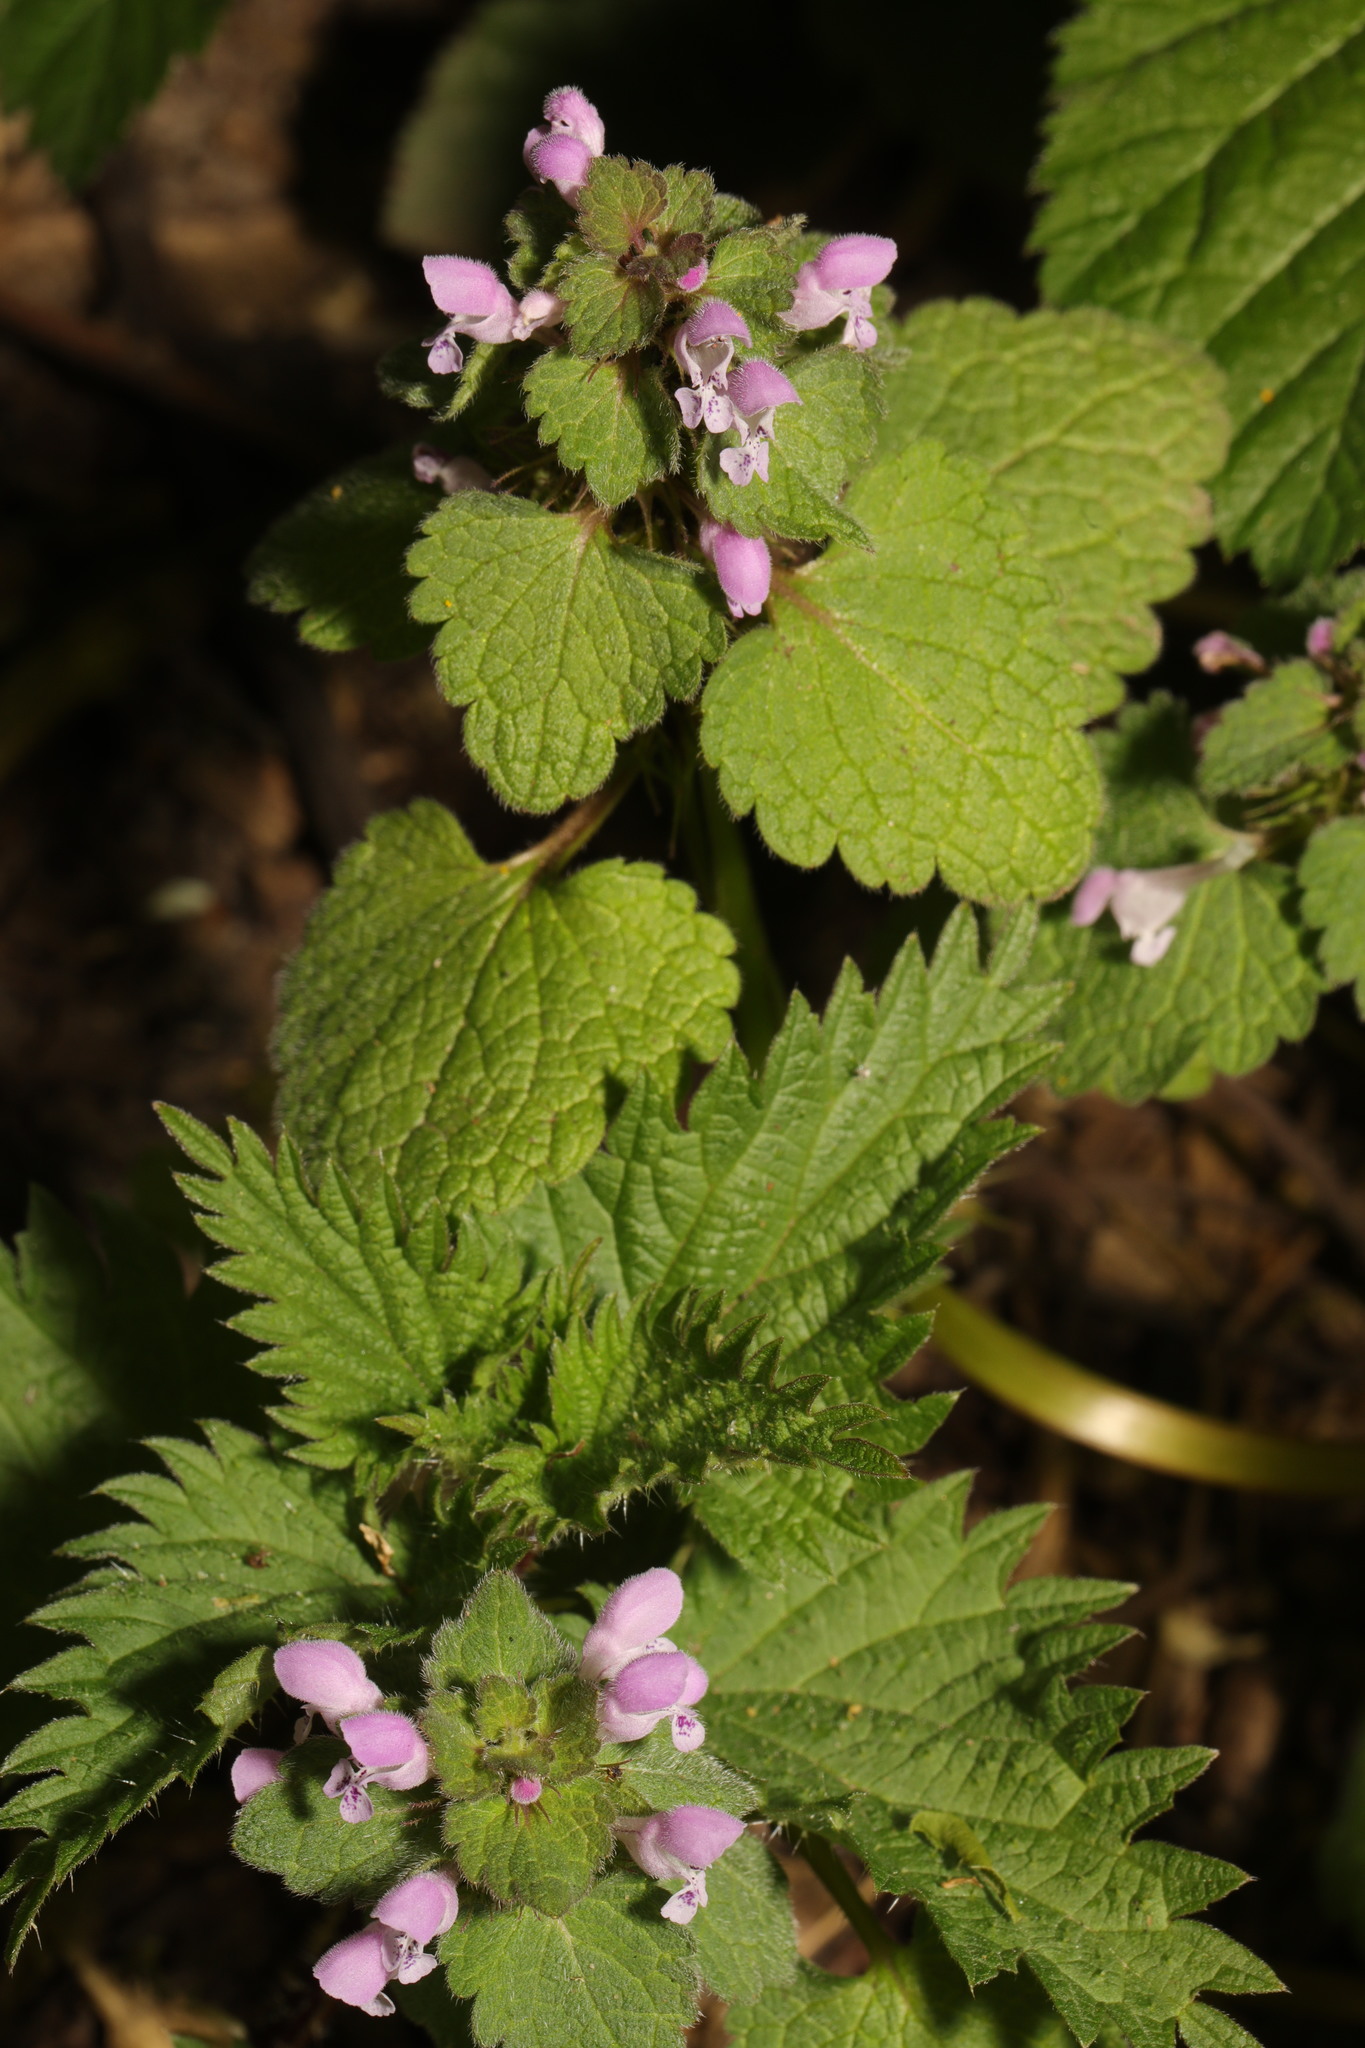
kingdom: Plantae
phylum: Tracheophyta
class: Magnoliopsida
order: Lamiales
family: Lamiaceae
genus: Lamium
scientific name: Lamium purpureum
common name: Red dead-nettle
